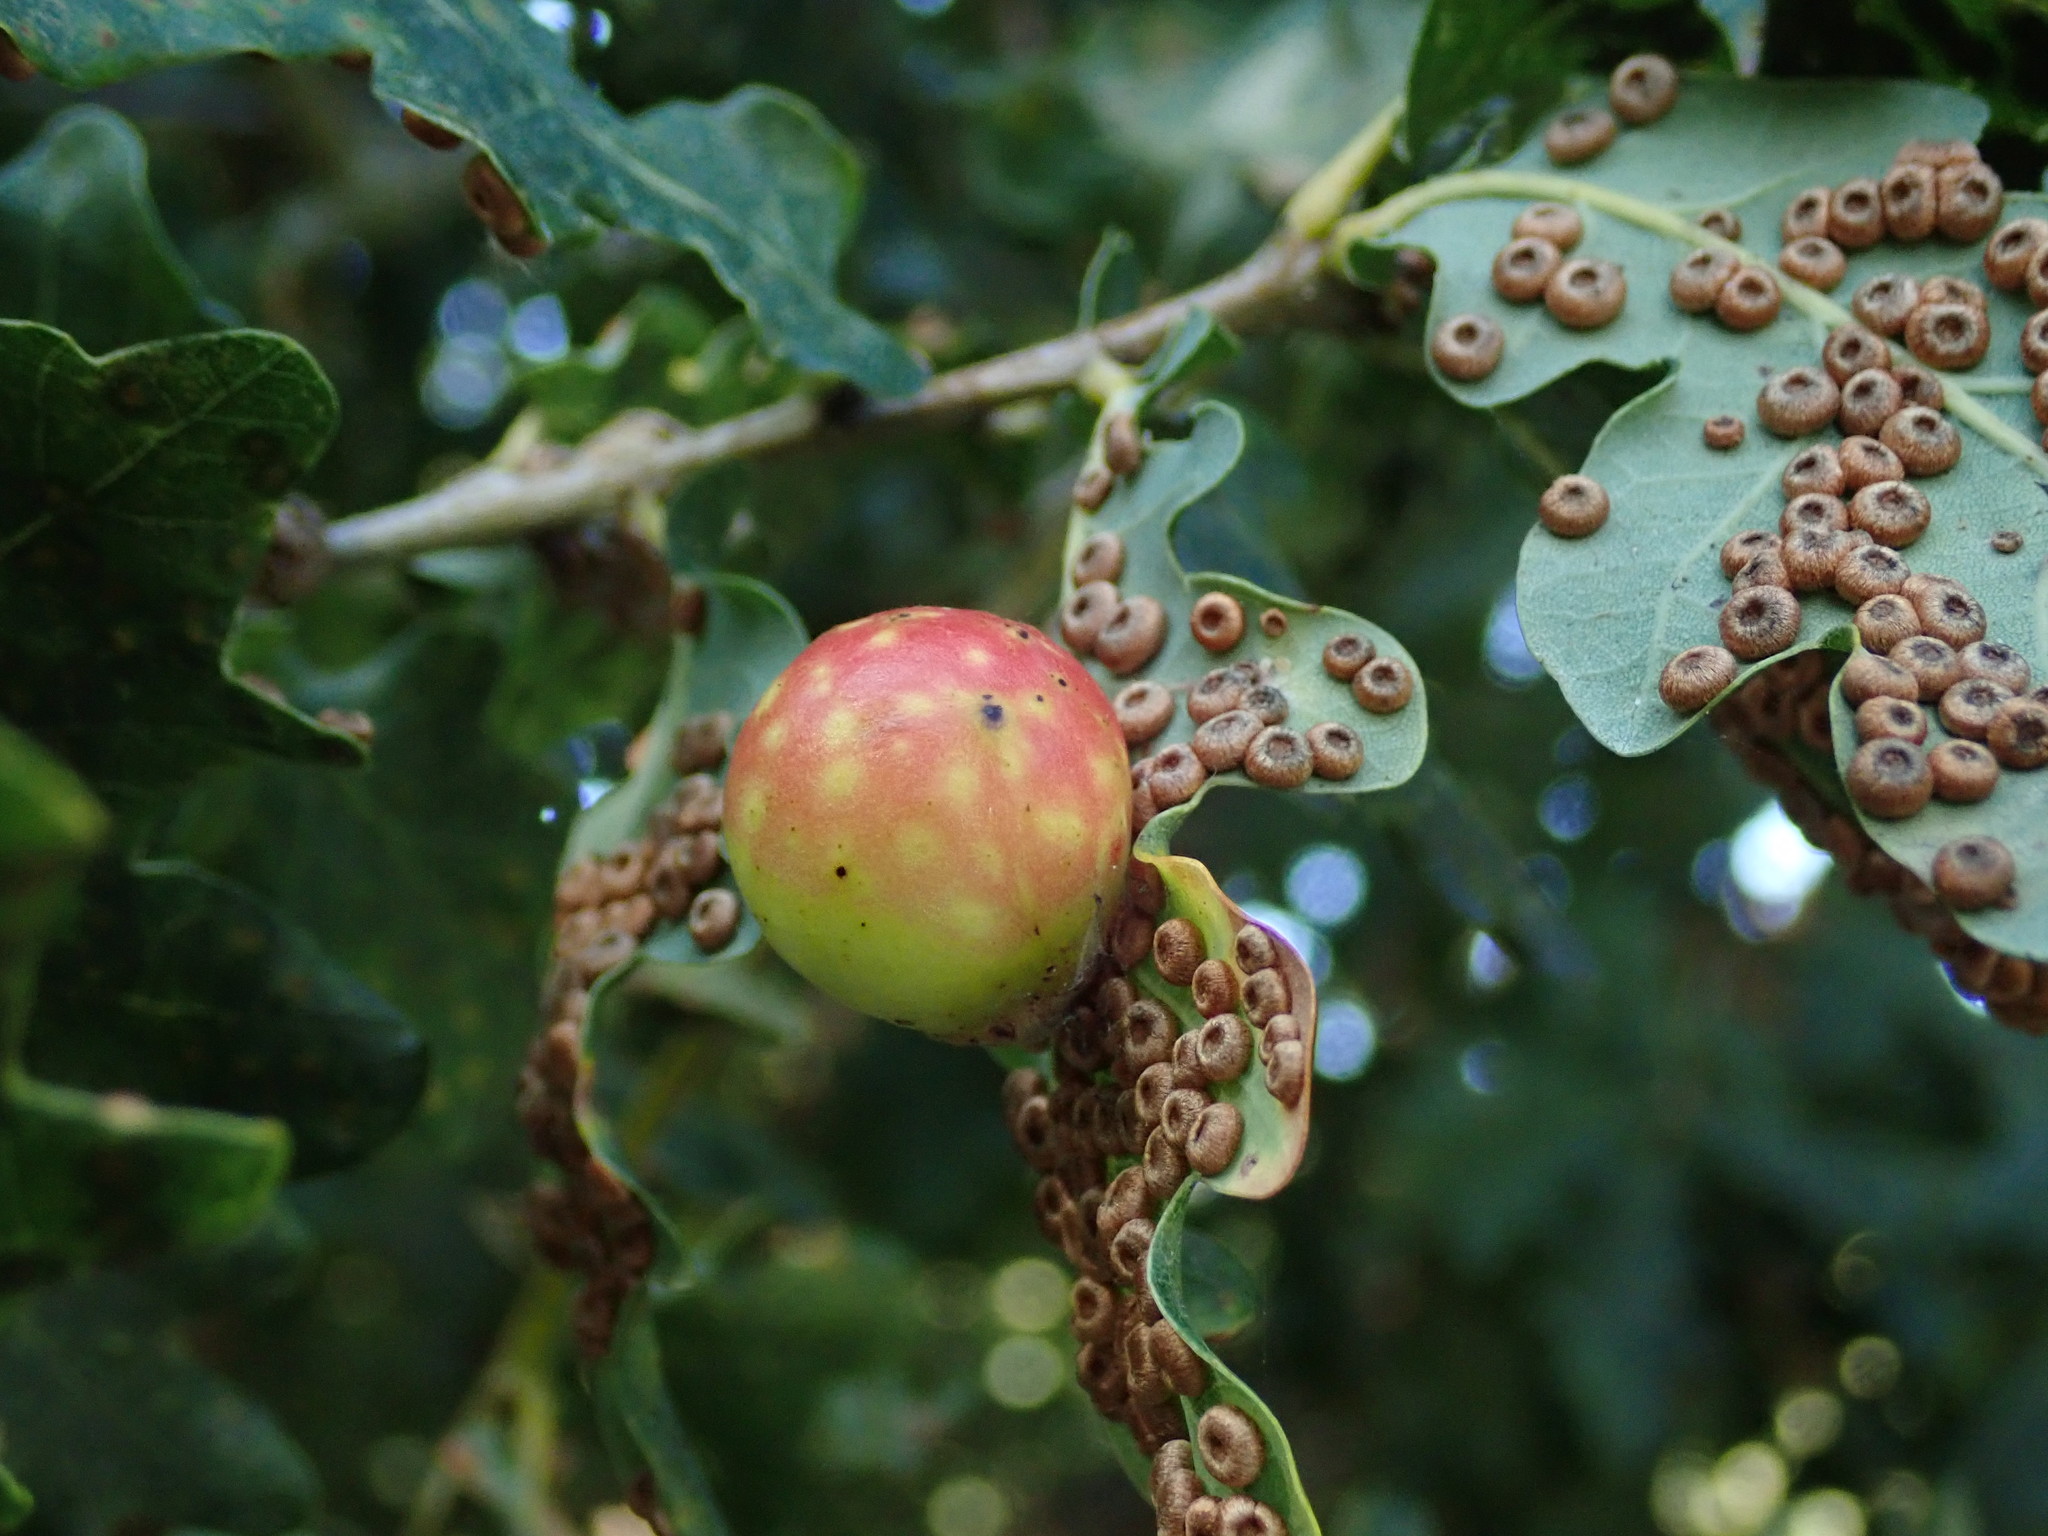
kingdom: Animalia
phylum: Arthropoda
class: Insecta
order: Hymenoptera
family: Cynipidae
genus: Cynips
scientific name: Cynips quercusfolii
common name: Cherry gall
